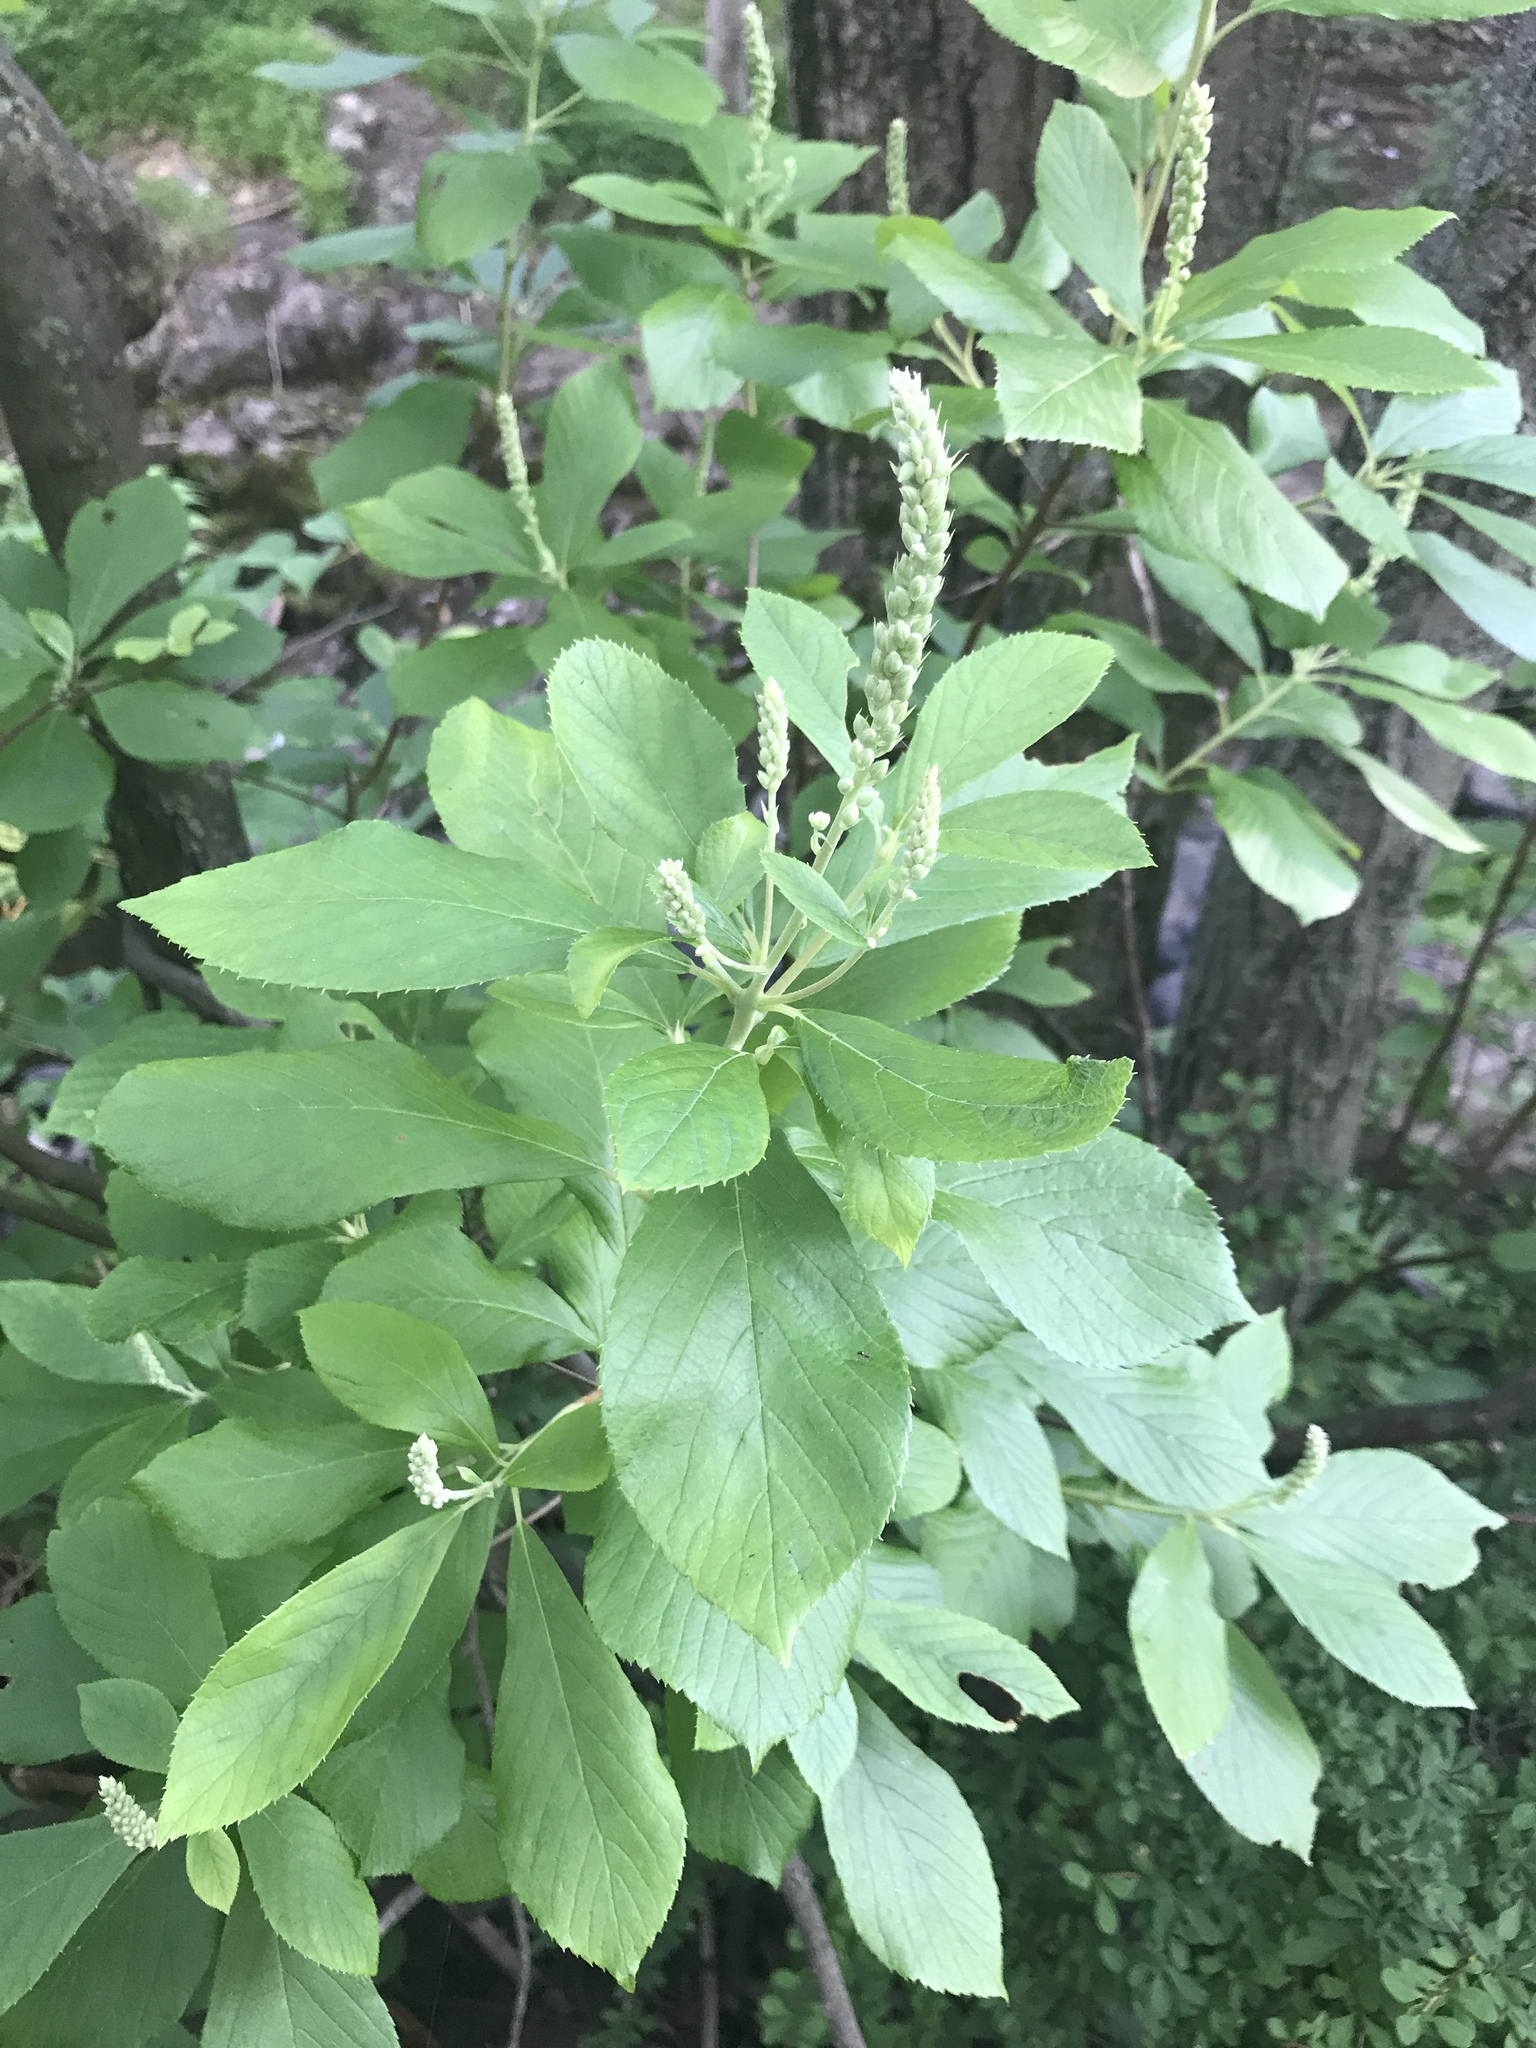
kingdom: Plantae
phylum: Tracheophyta
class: Magnoliopsida
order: Ericales
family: Clethraceae
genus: Clethra
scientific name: Clethra alnifolia
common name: Sweet pepperbush
